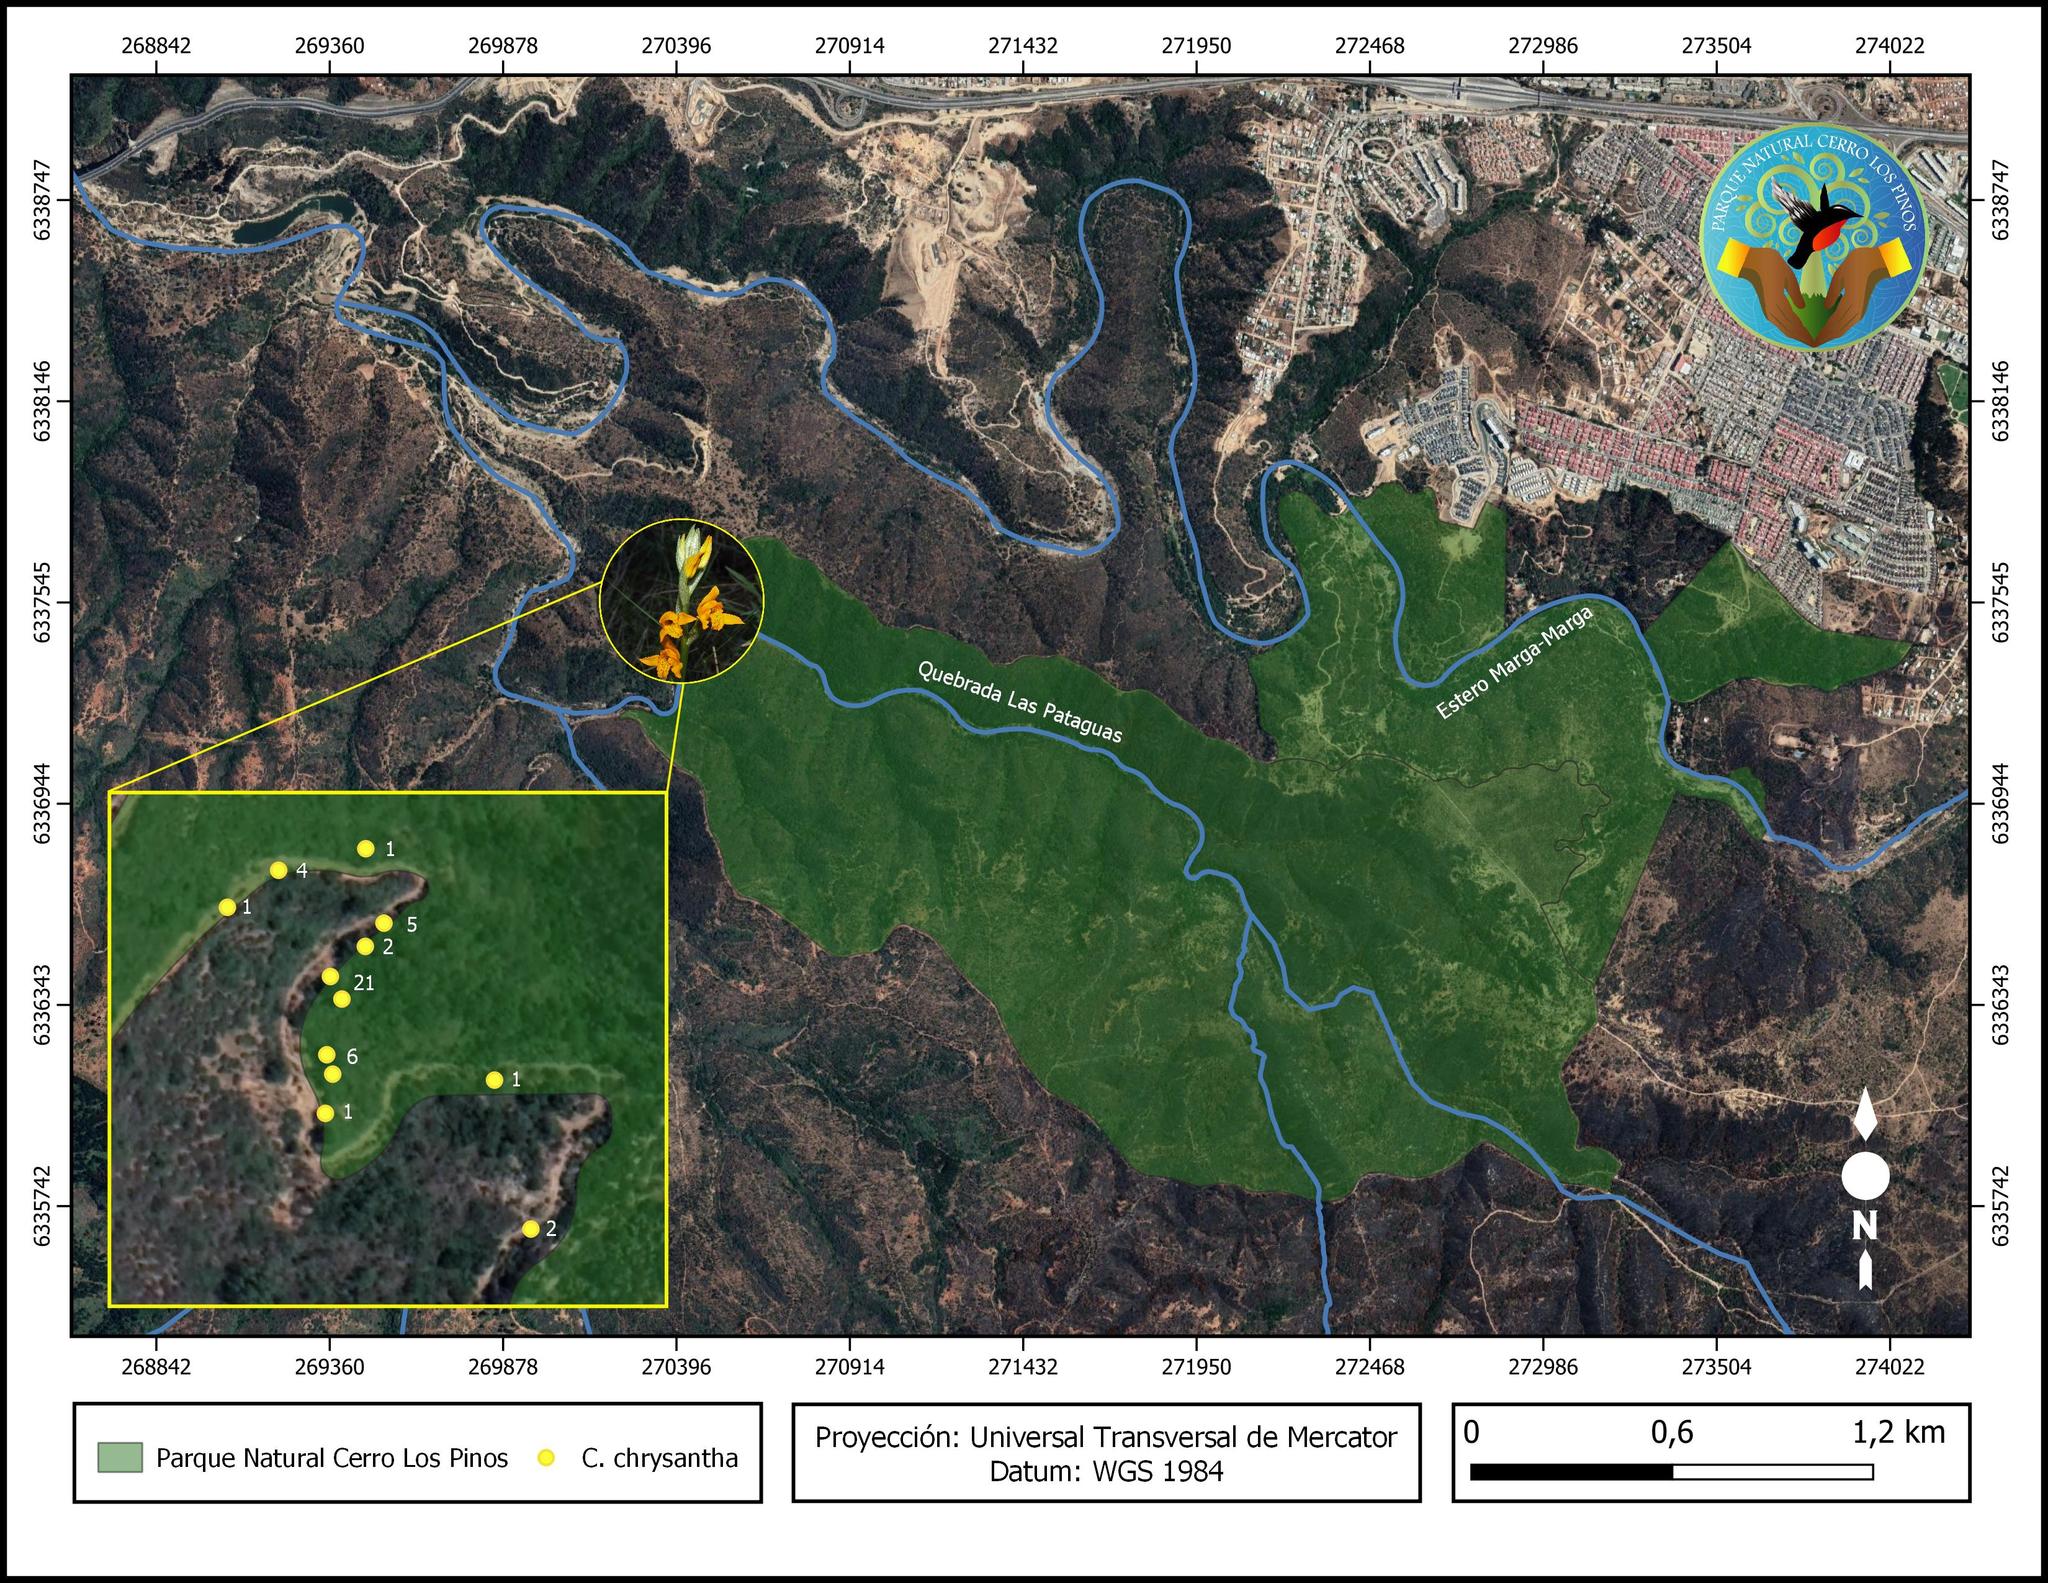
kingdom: Plantae
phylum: Tracheophyta
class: Liliopsida
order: Asparagales
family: Orchidaceae
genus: Chloraea
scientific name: Chloraea chrysantha
